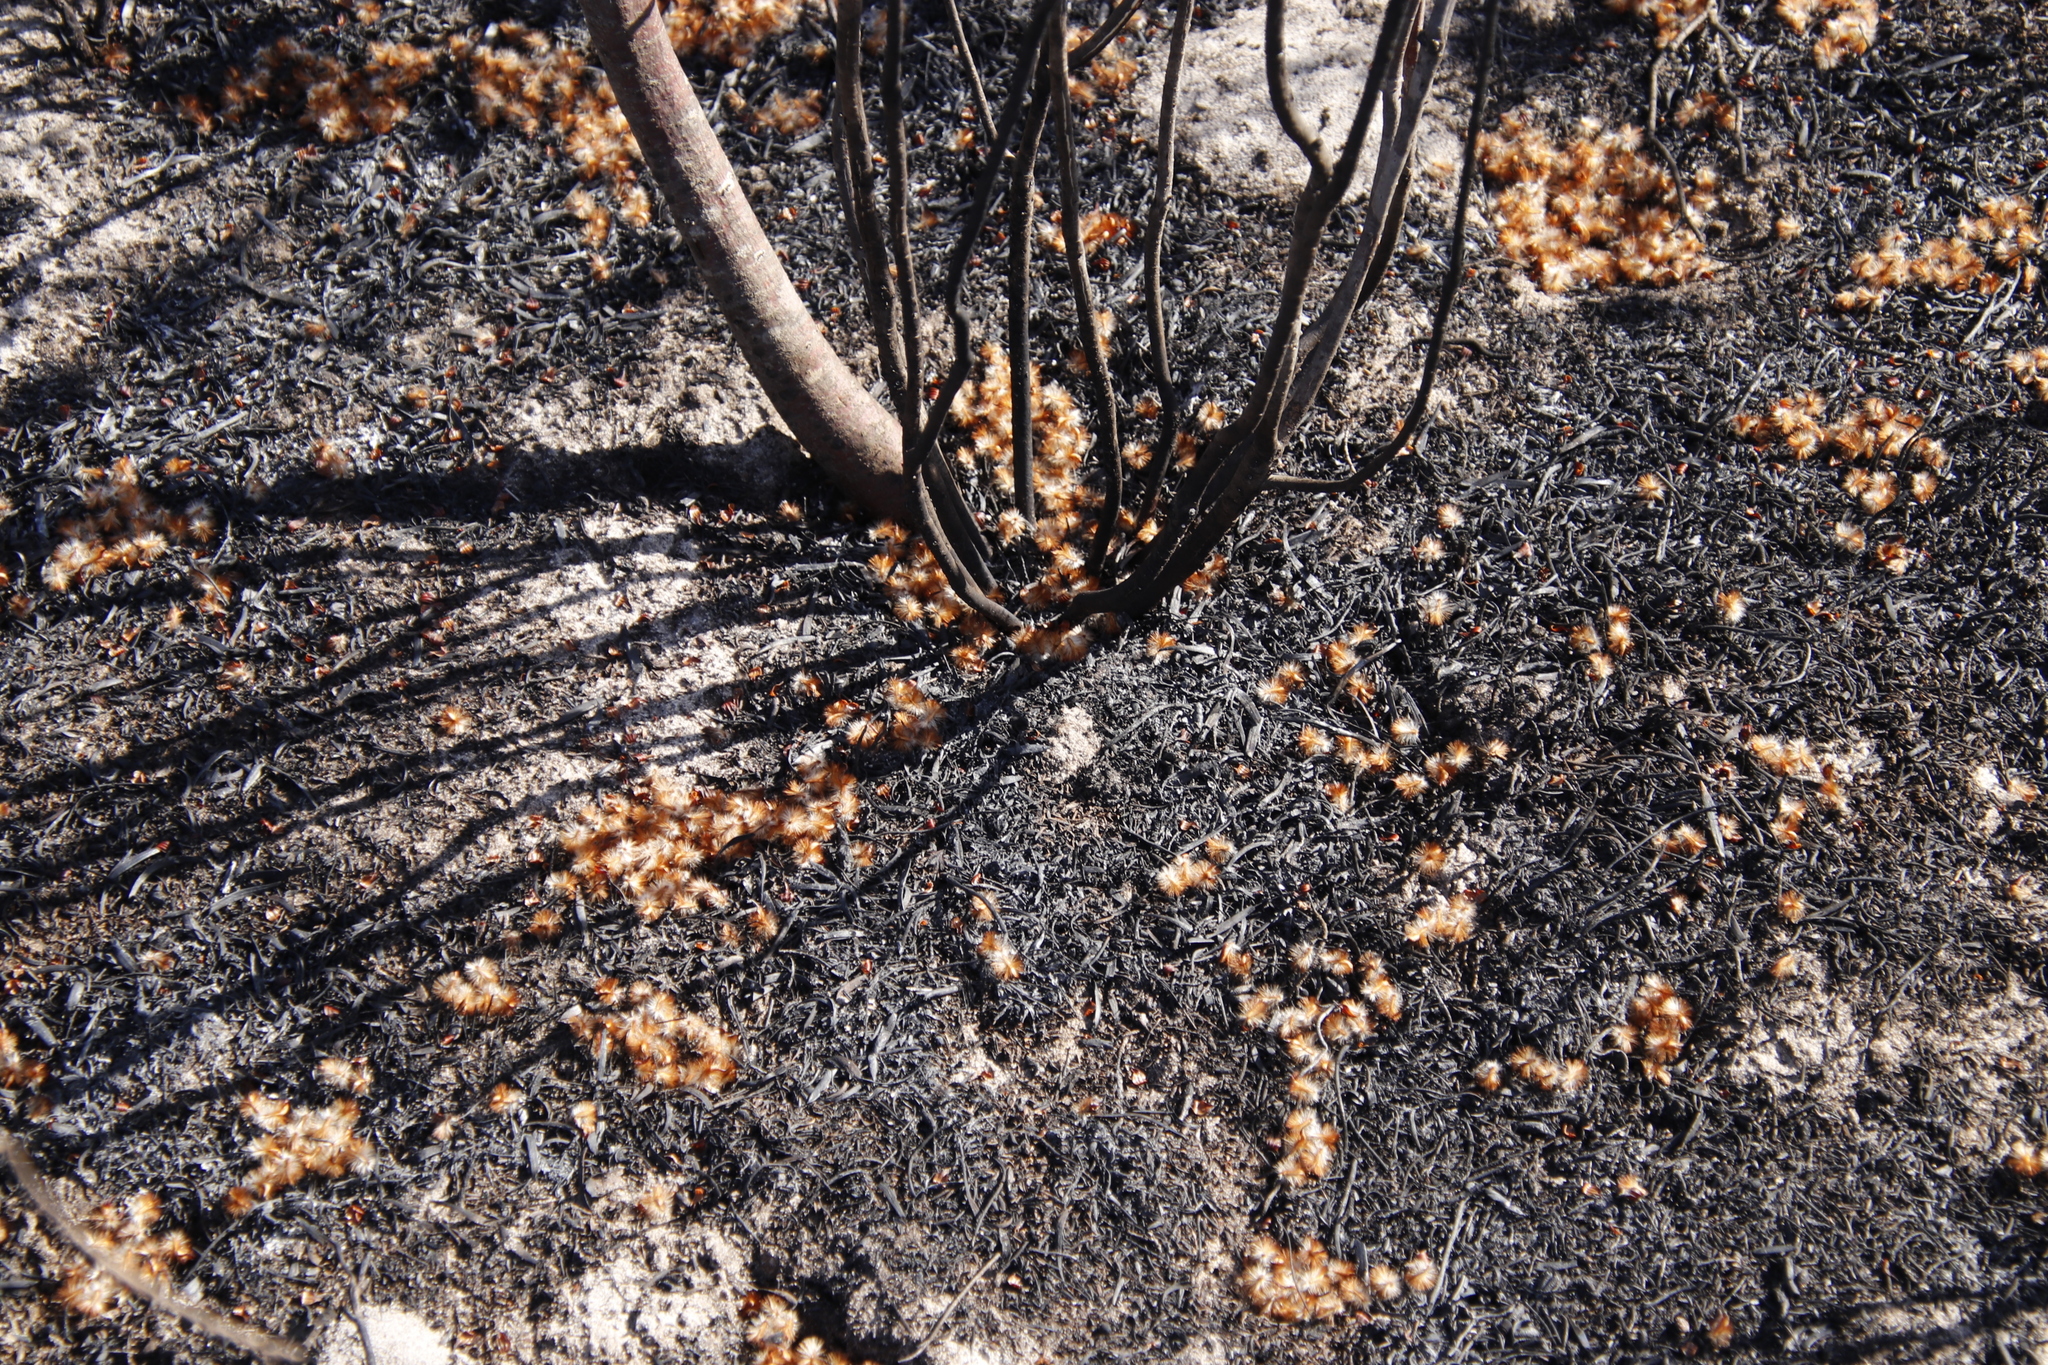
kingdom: Plantae
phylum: Tracheophyta
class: Magnoliopsida
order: Proteales
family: Proteaceae
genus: Protea
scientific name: Protea scolymocephala
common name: Thistle sugarbush
